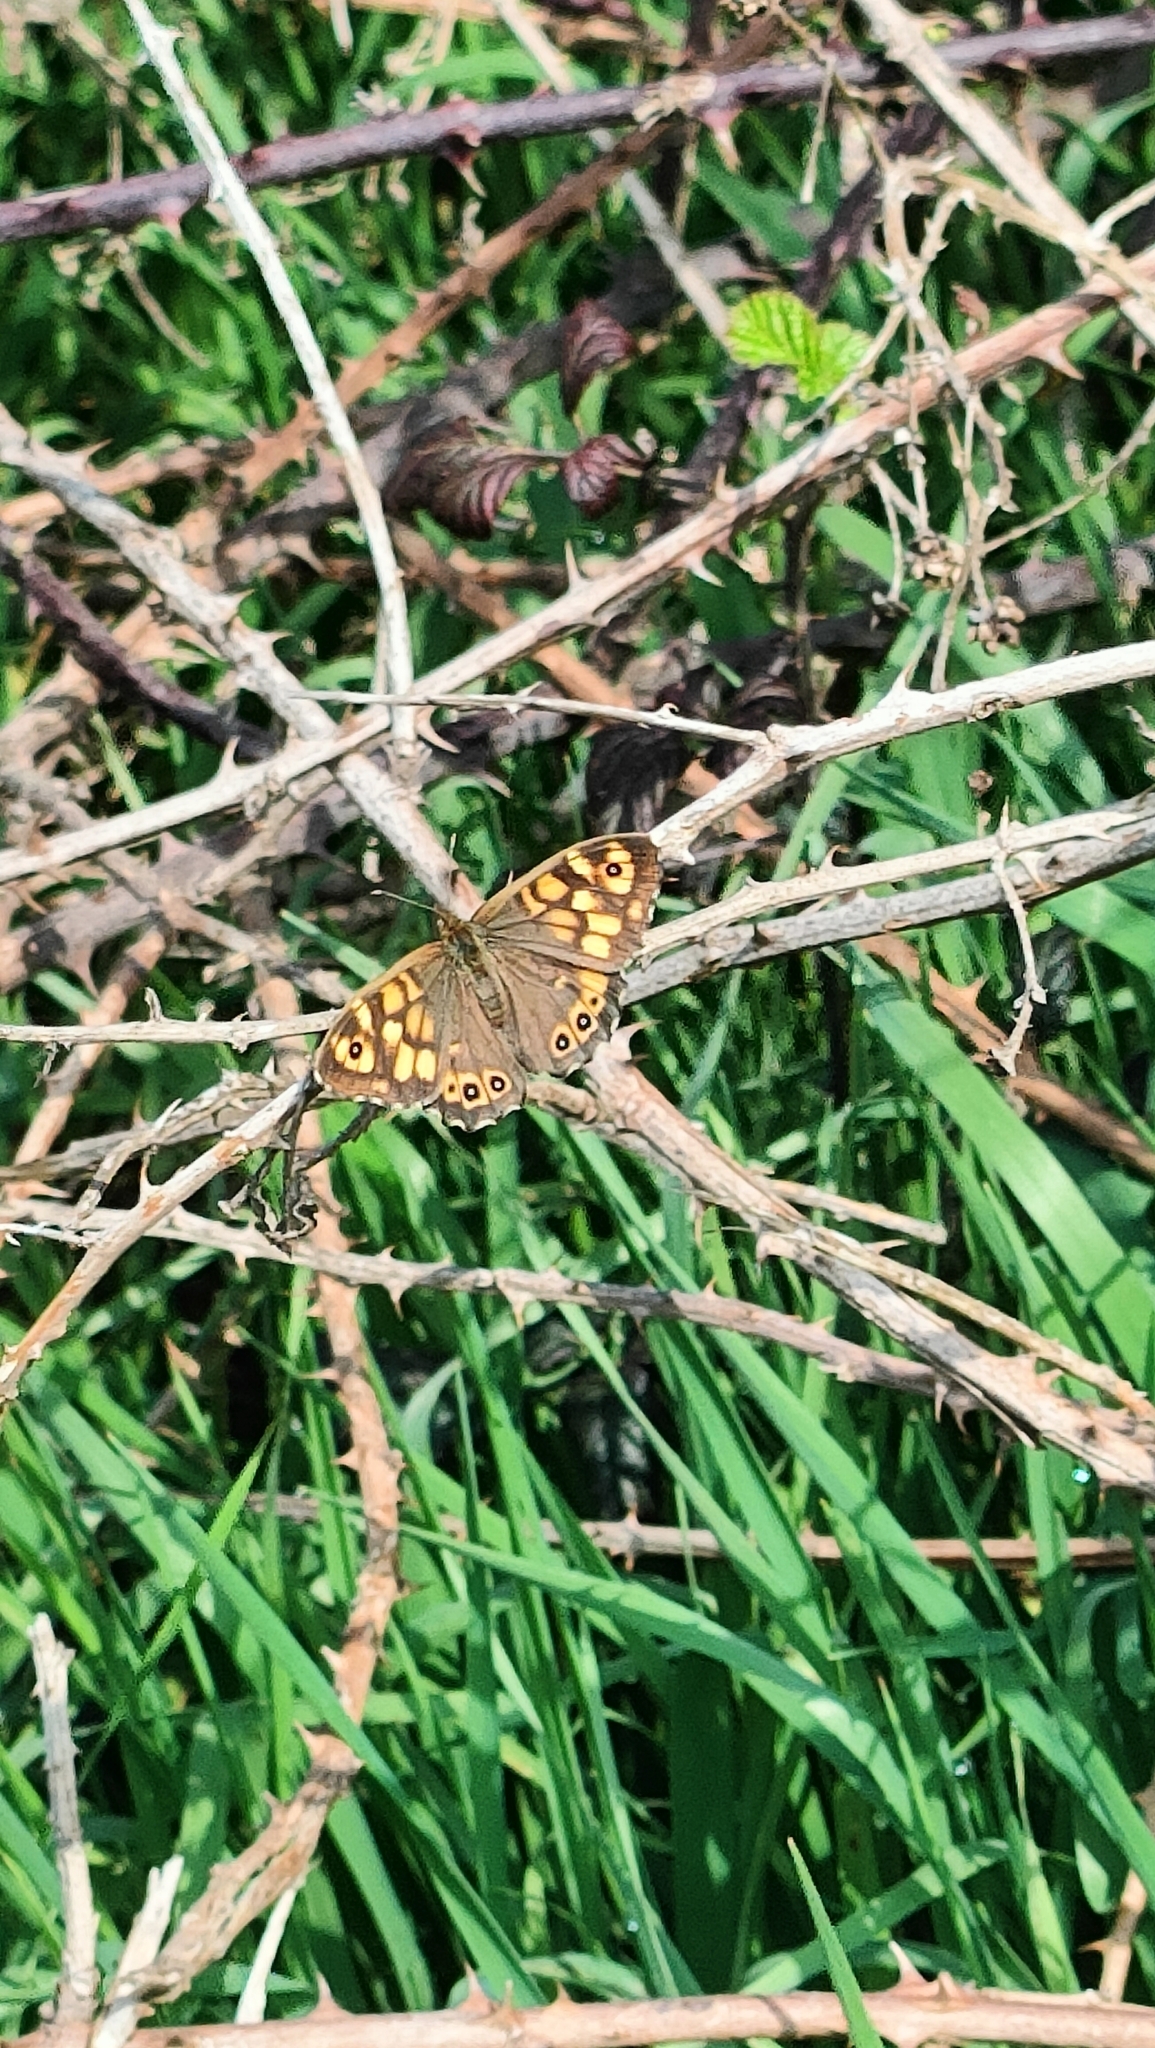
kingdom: Animalia
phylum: Arthropoda
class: Insecta
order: Lepidoptera
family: Nymphalidae
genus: Pararge
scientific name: Pararge aegeria
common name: Speckled wood
